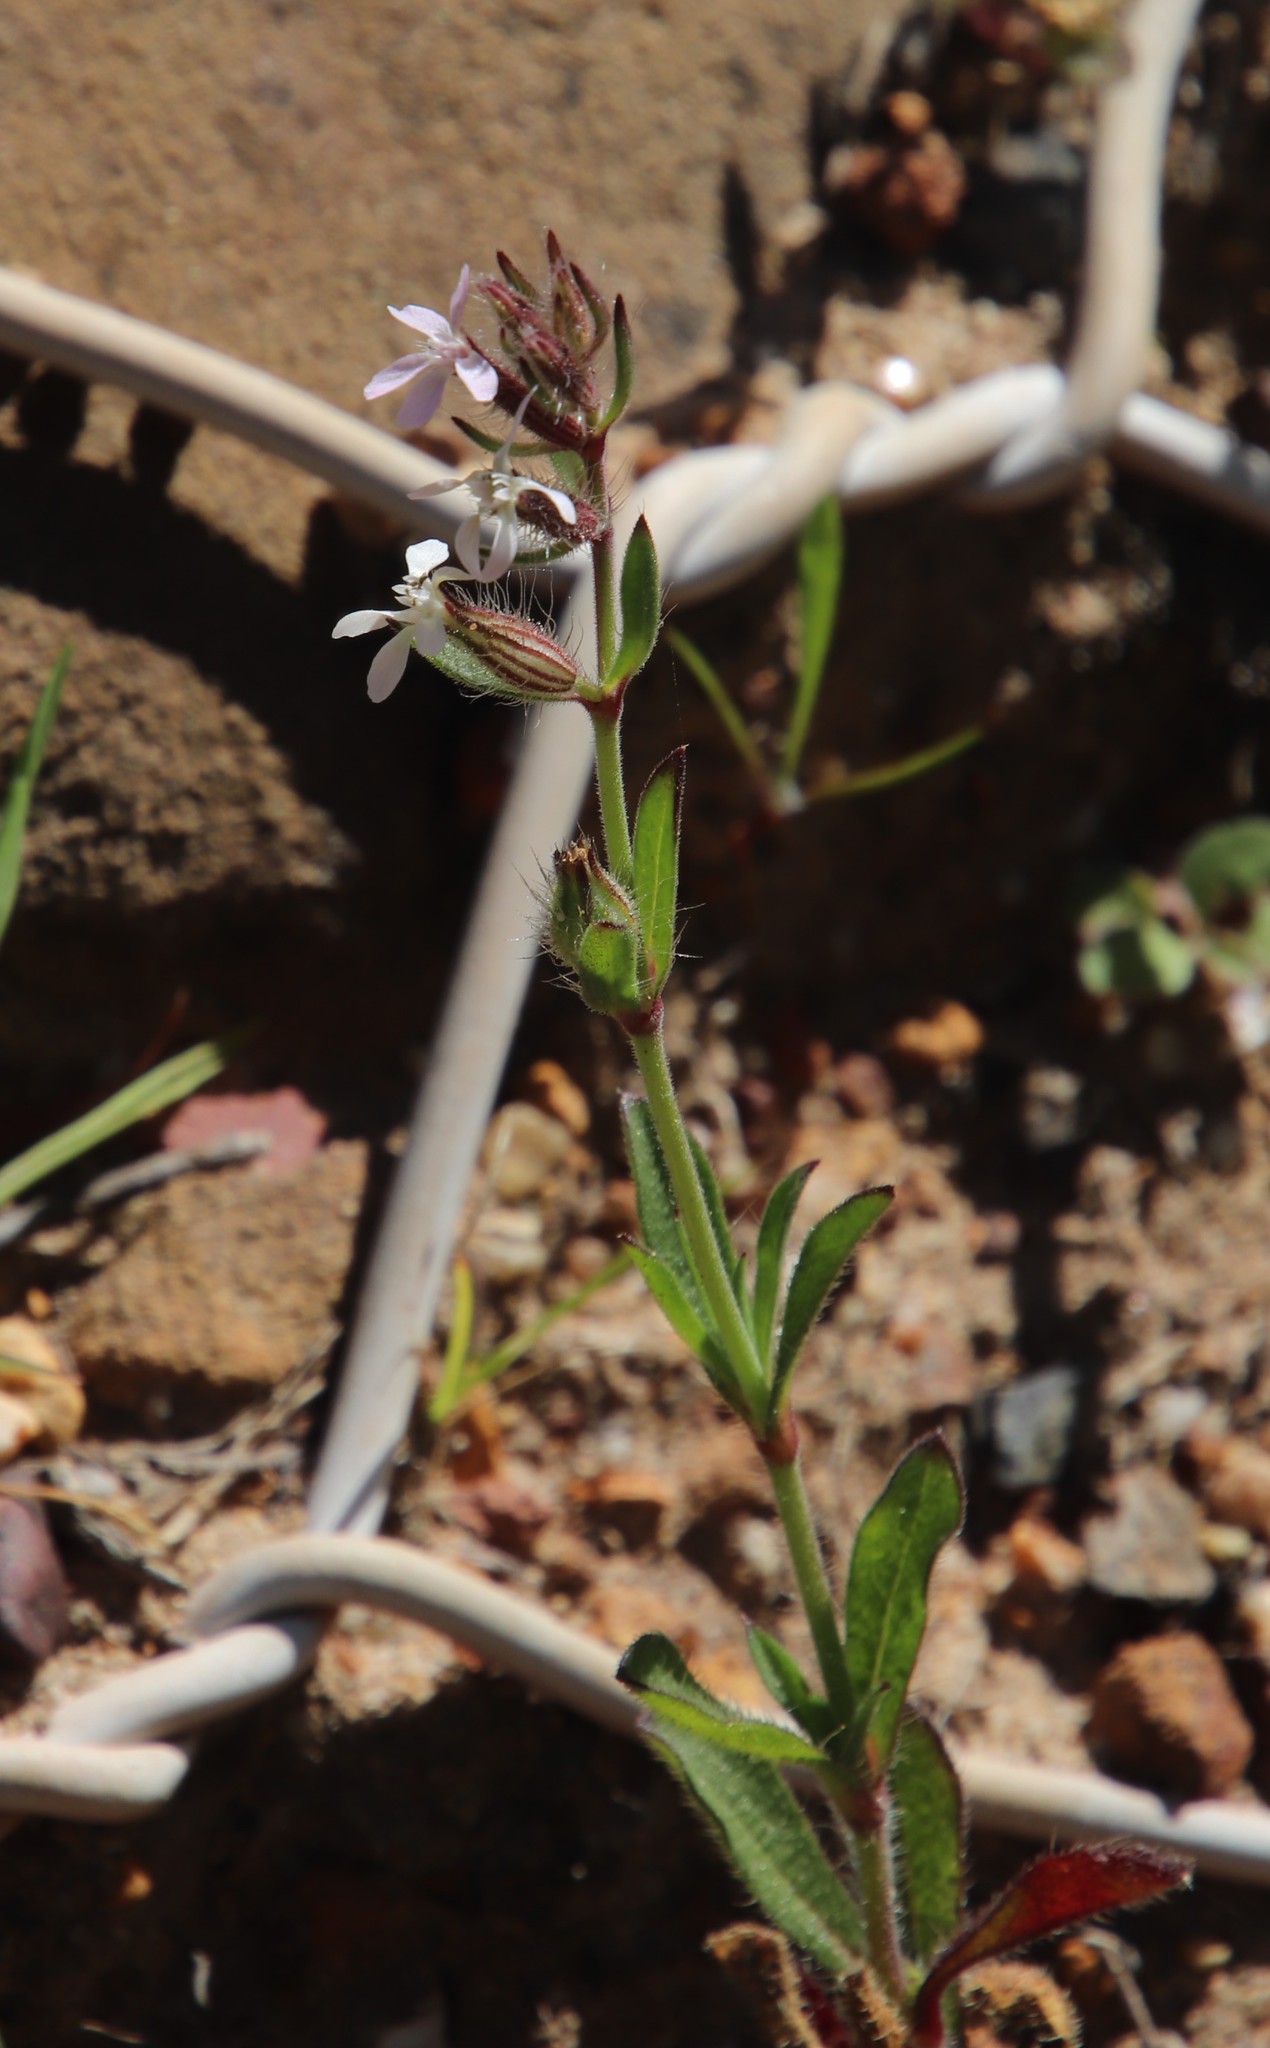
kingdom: Plantae
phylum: Tracheophyta
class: Magnoliopsida
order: Caryophyllales
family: Caryophyllaceae
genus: Silene
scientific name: Silene gallica
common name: Small-flowered catchfly
